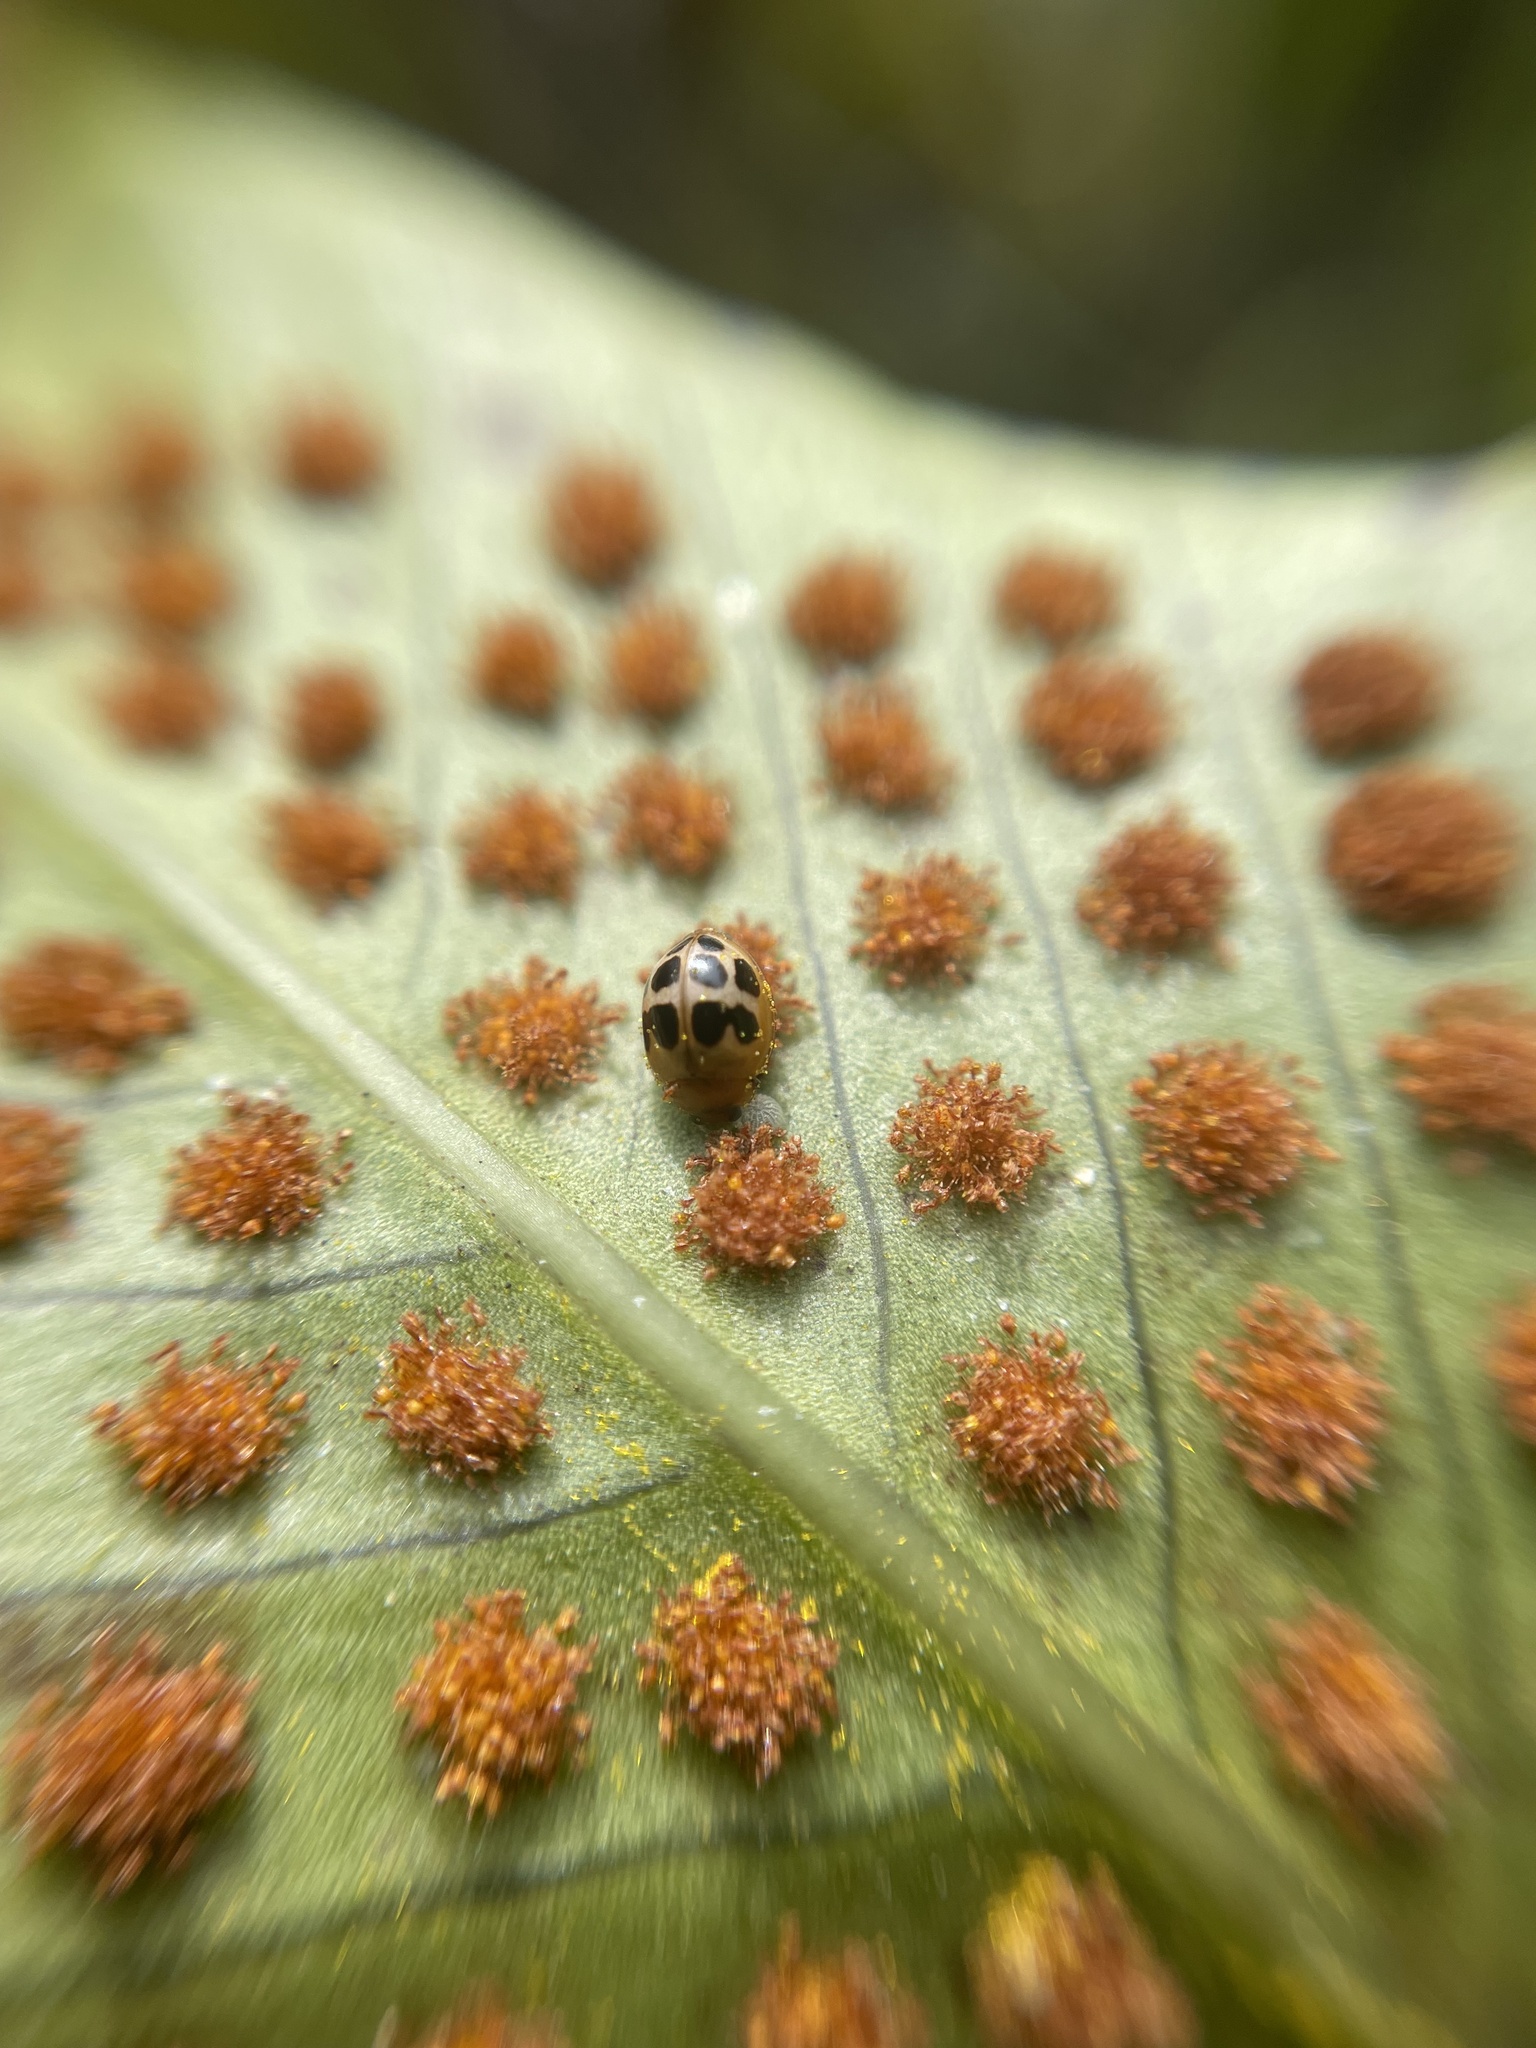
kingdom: Animalia
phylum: Arthropoda
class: Insecta
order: Coleoptera
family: Coccinellidae
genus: Zagreus
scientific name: Zagreus
